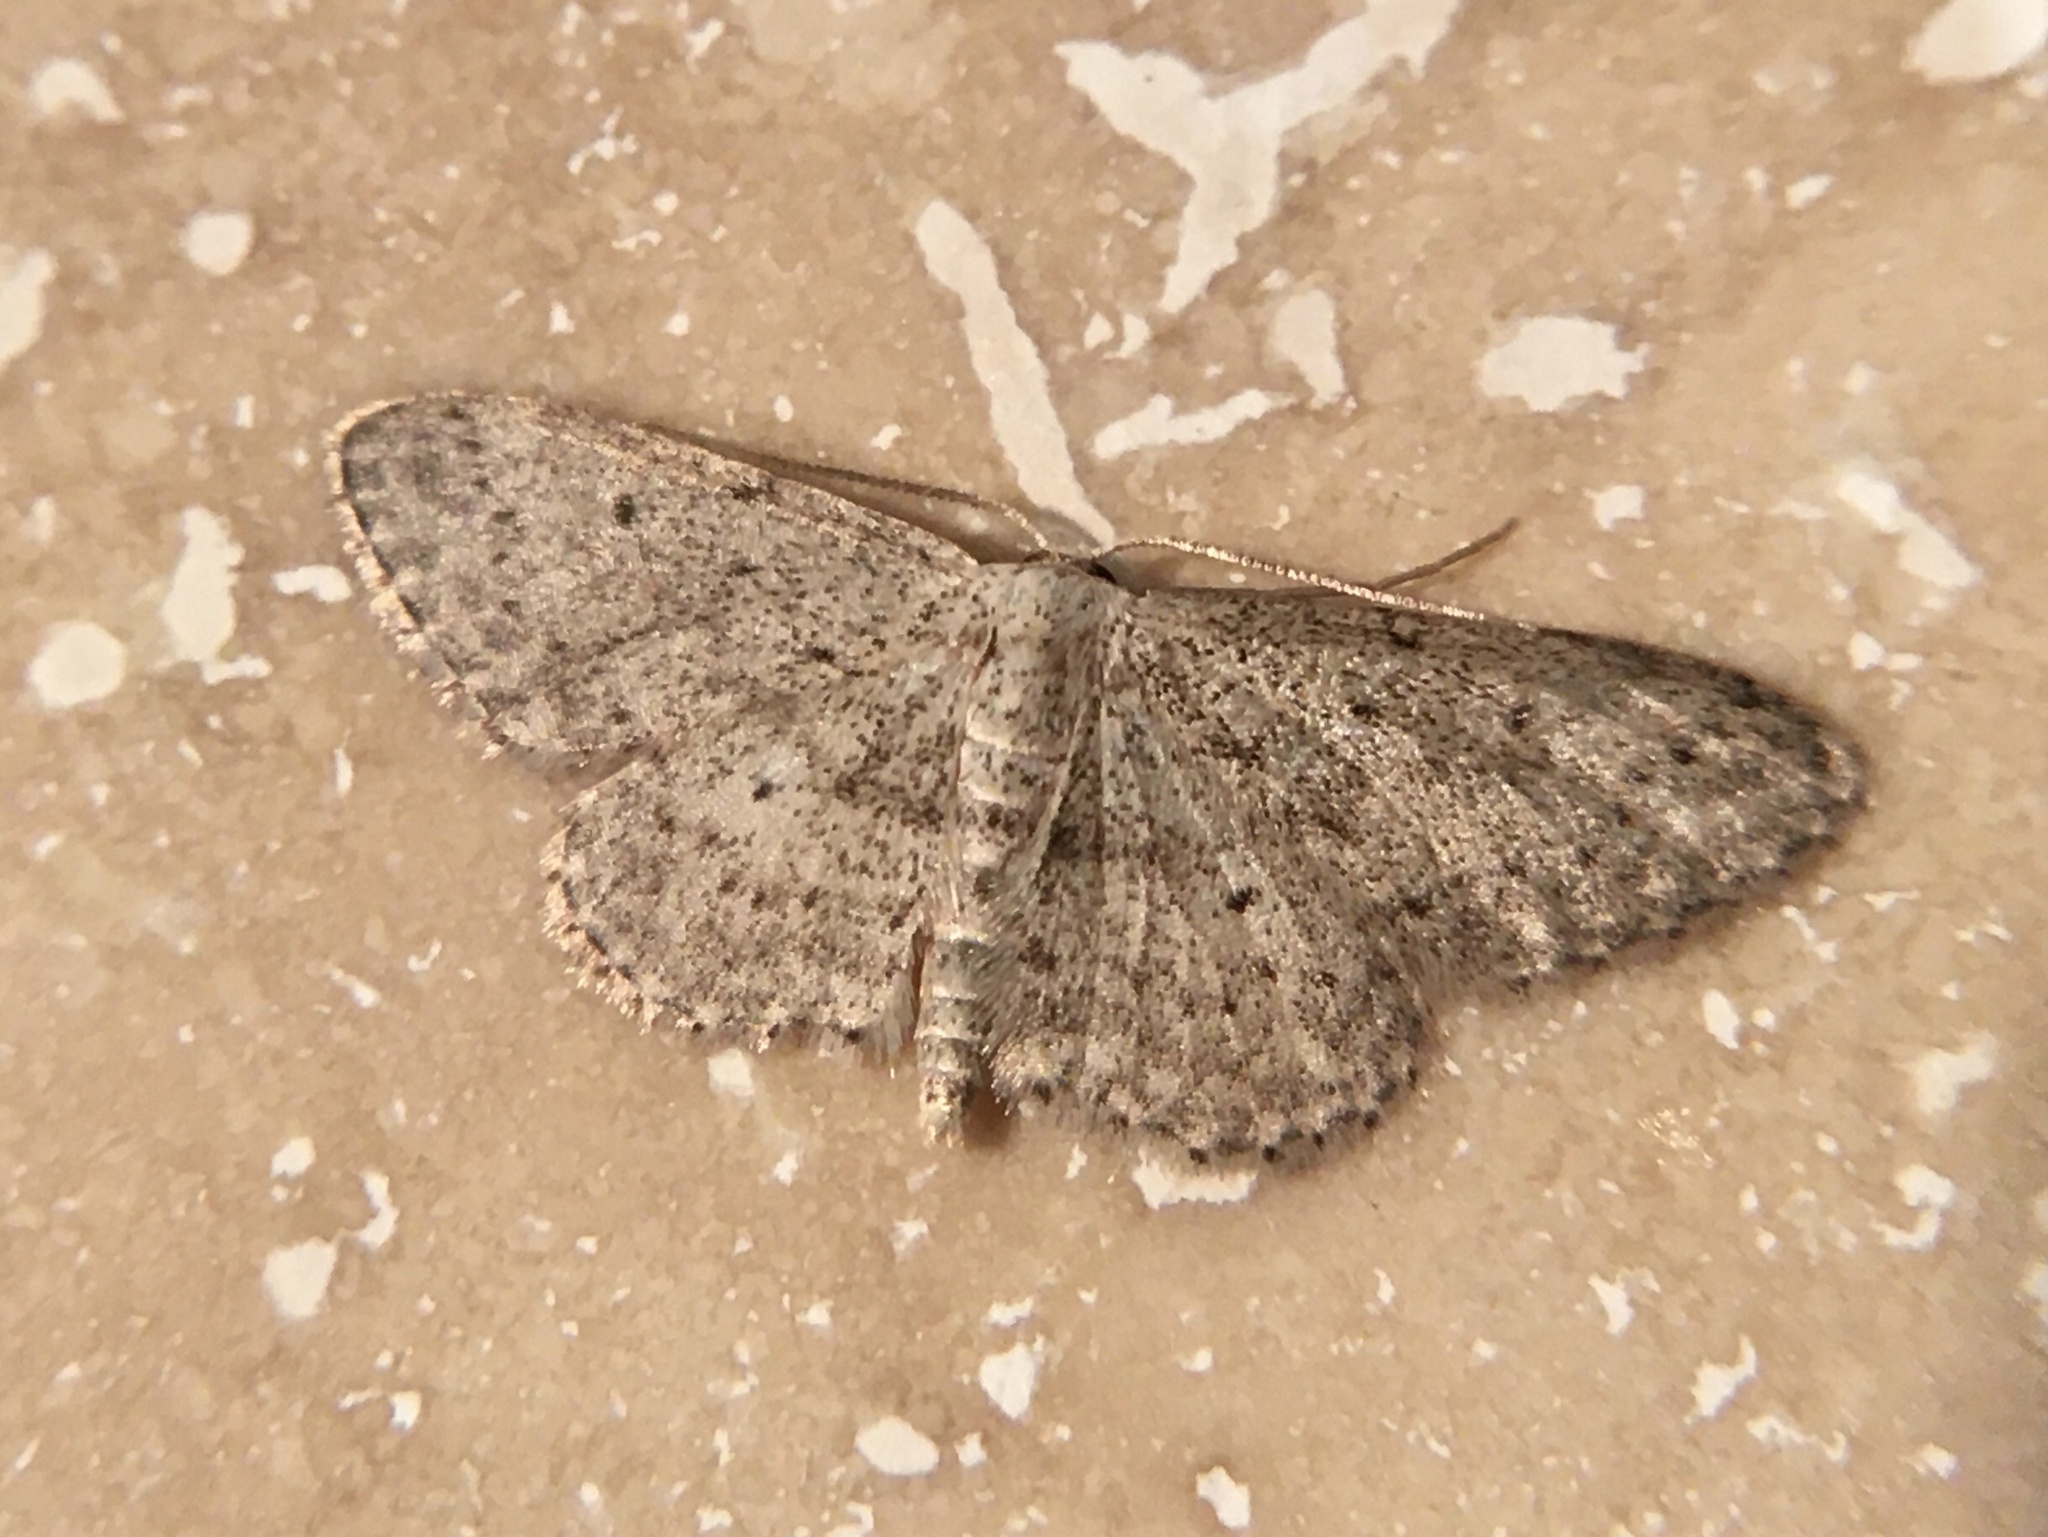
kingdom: Animalia
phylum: Arthropoda
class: Insecta
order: Lepidoptera
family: Geometridae
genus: Idaea
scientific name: Idaea seriata
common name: Small dusty wave
